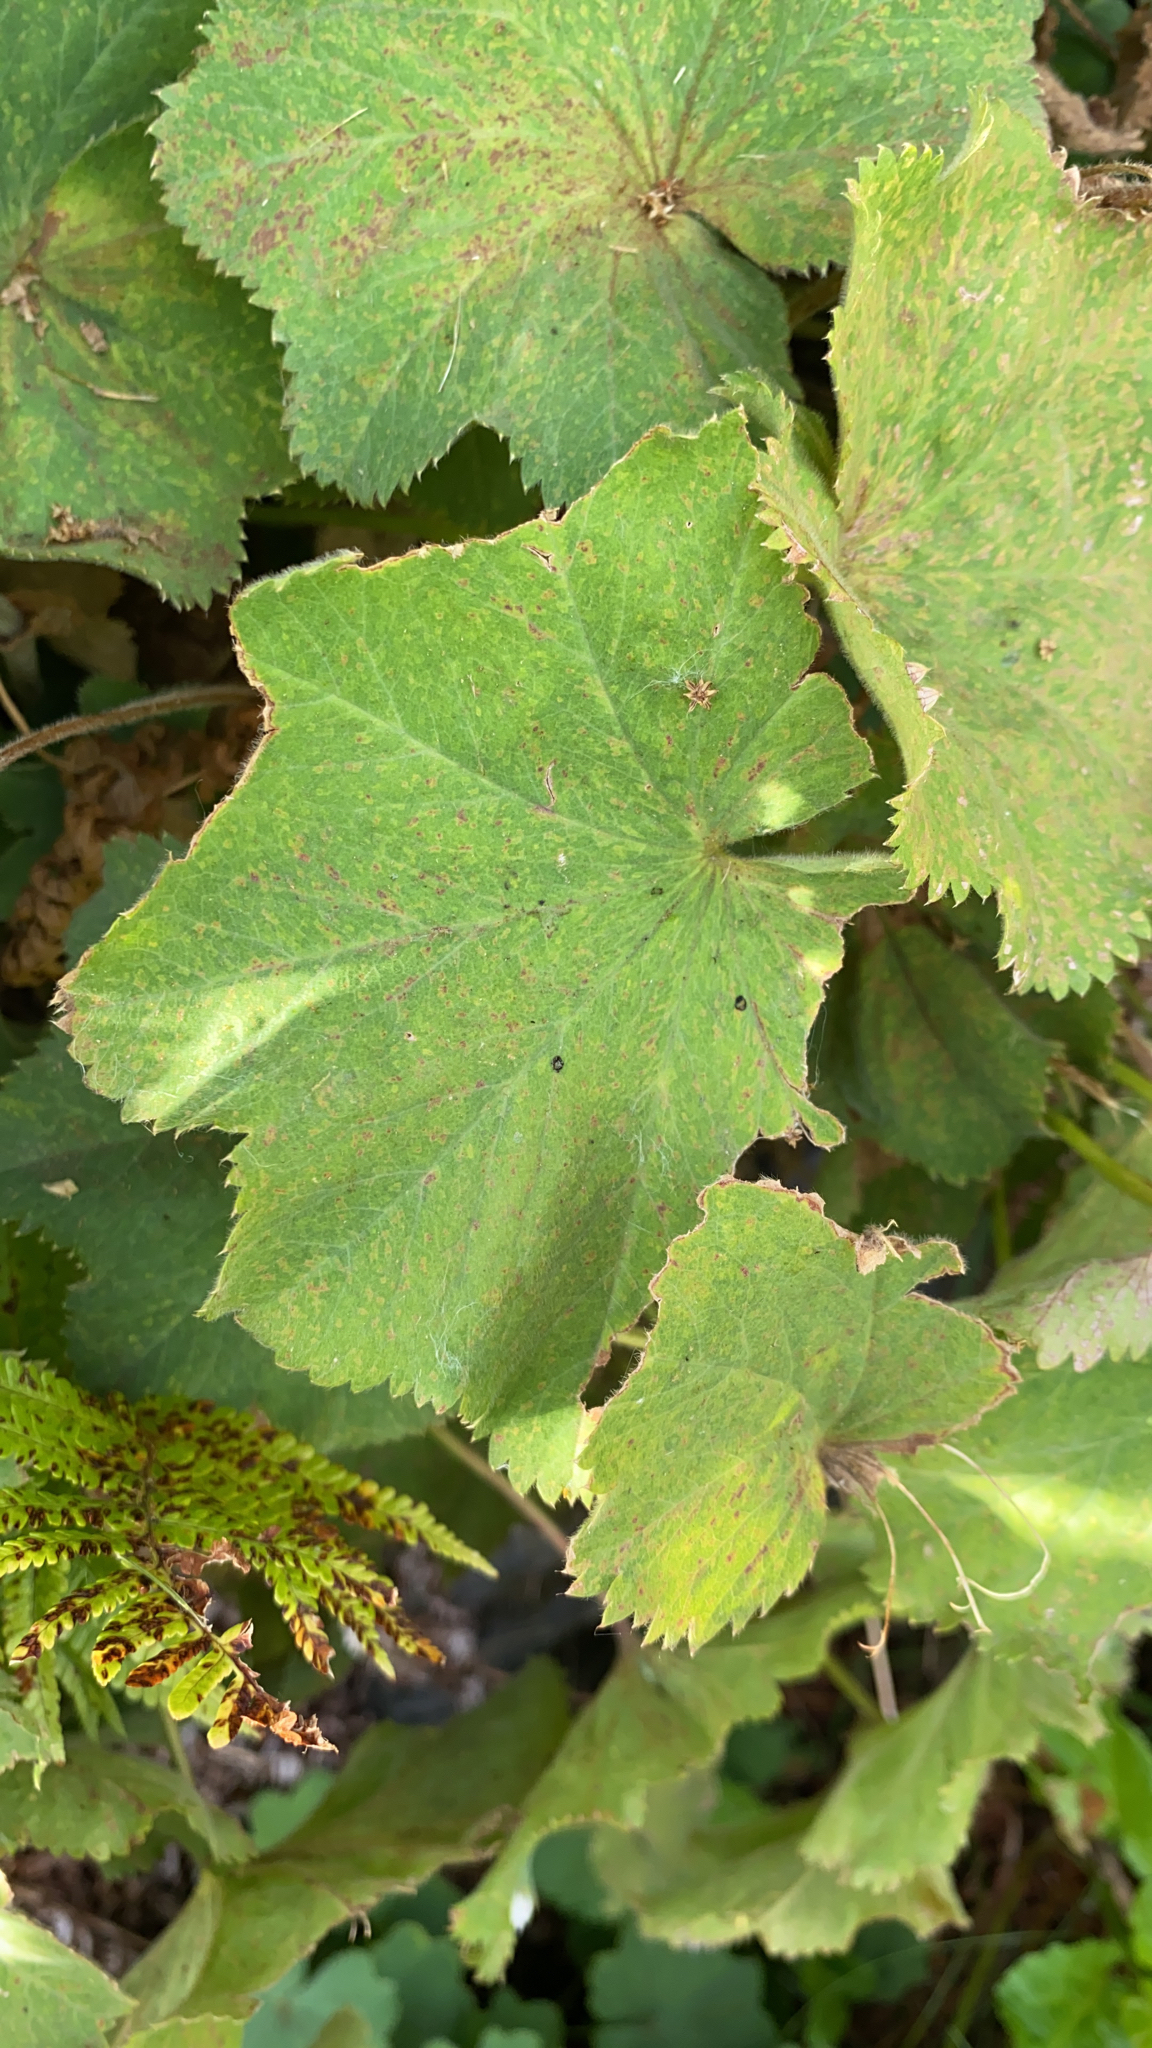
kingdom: Plantae
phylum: Tracheophyta
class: Magnoliopsida
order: Rosales
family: Rosaceae
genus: Alchemilla
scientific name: Alchemilla mollis
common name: Lady's-mantle
